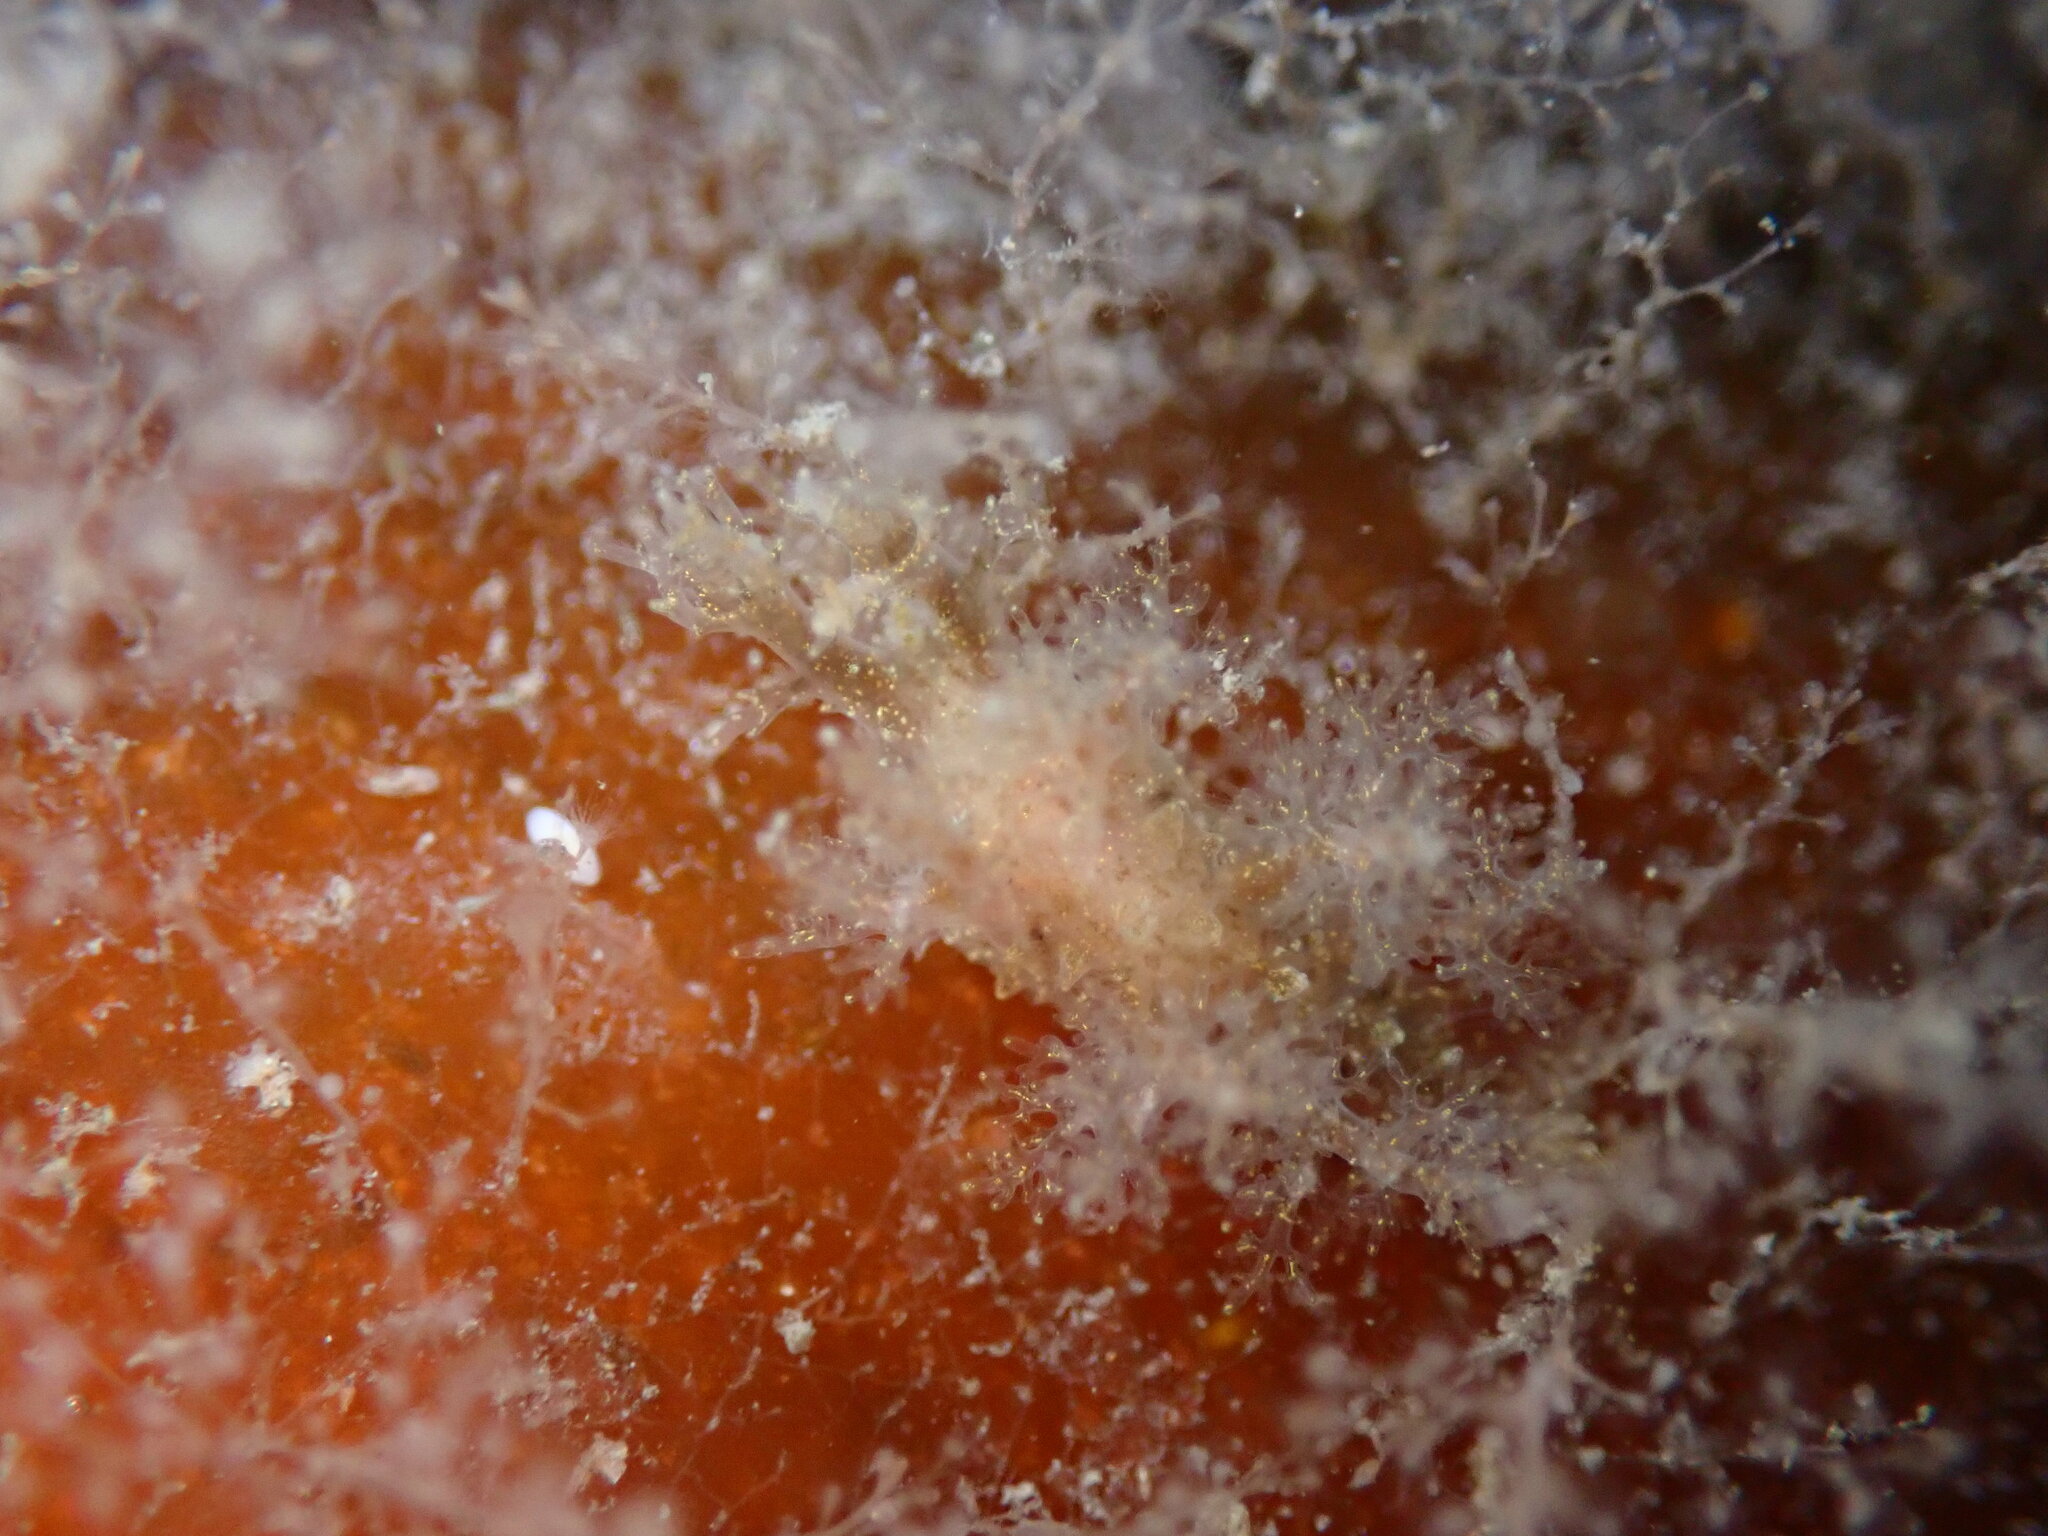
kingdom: Animalia
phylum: Mollusca
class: Gastropoda
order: Nudibranchia
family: Dendronotidae
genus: Dendronotus
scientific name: Dendronotus venustus
